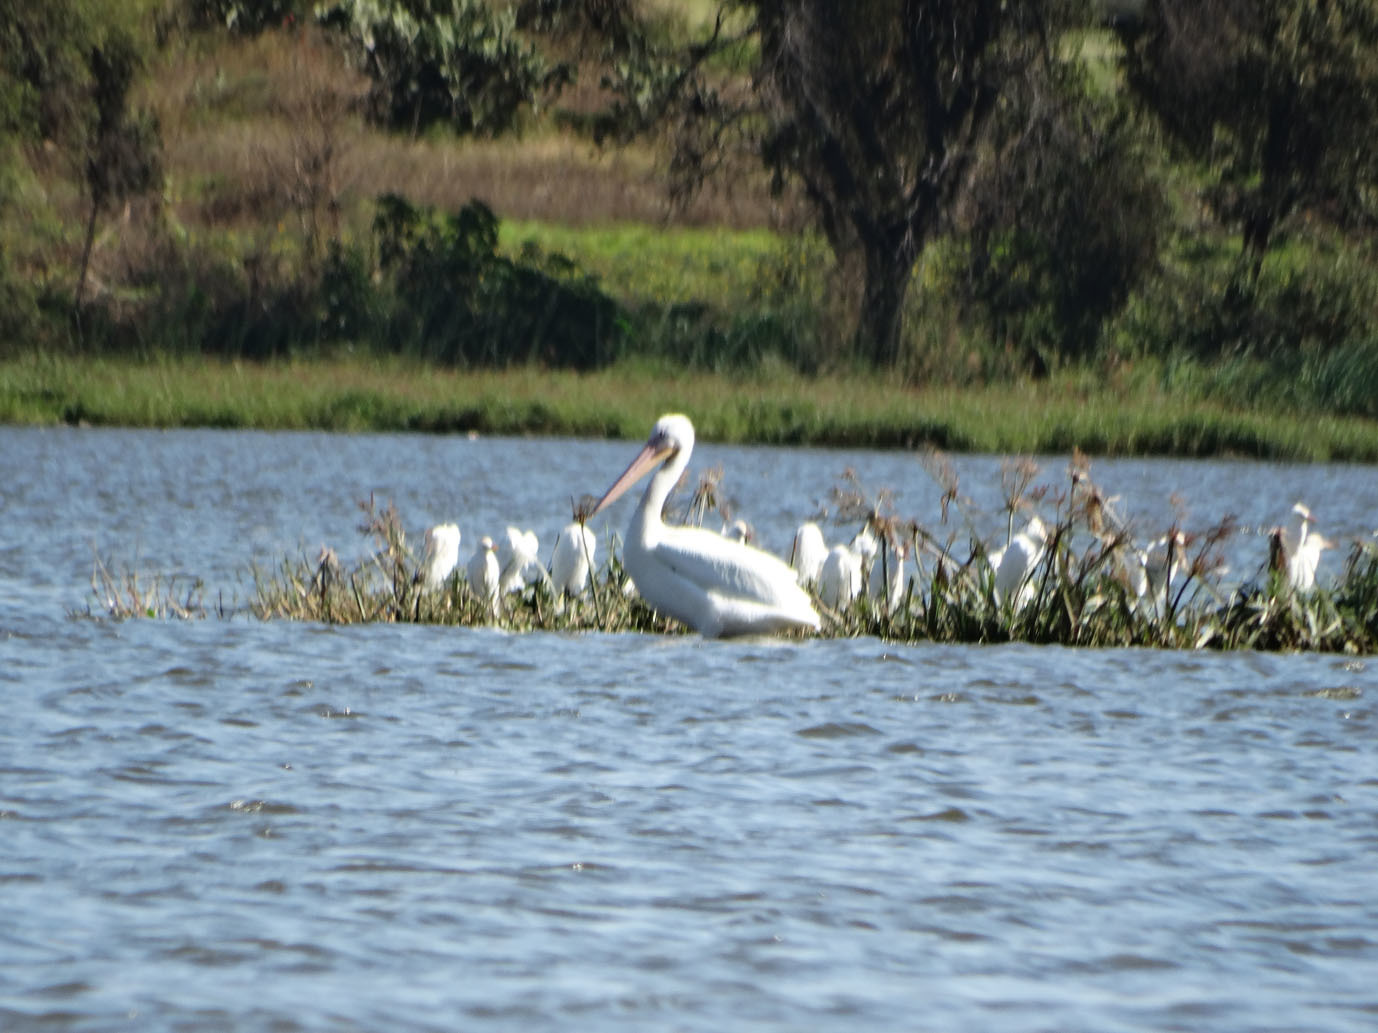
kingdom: Animalia
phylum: Chordata
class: Aves
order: Pelecaniformes
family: Pelecanidae
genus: Pelecanus
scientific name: Pelecanus erythrorhynchos
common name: American white pelican
